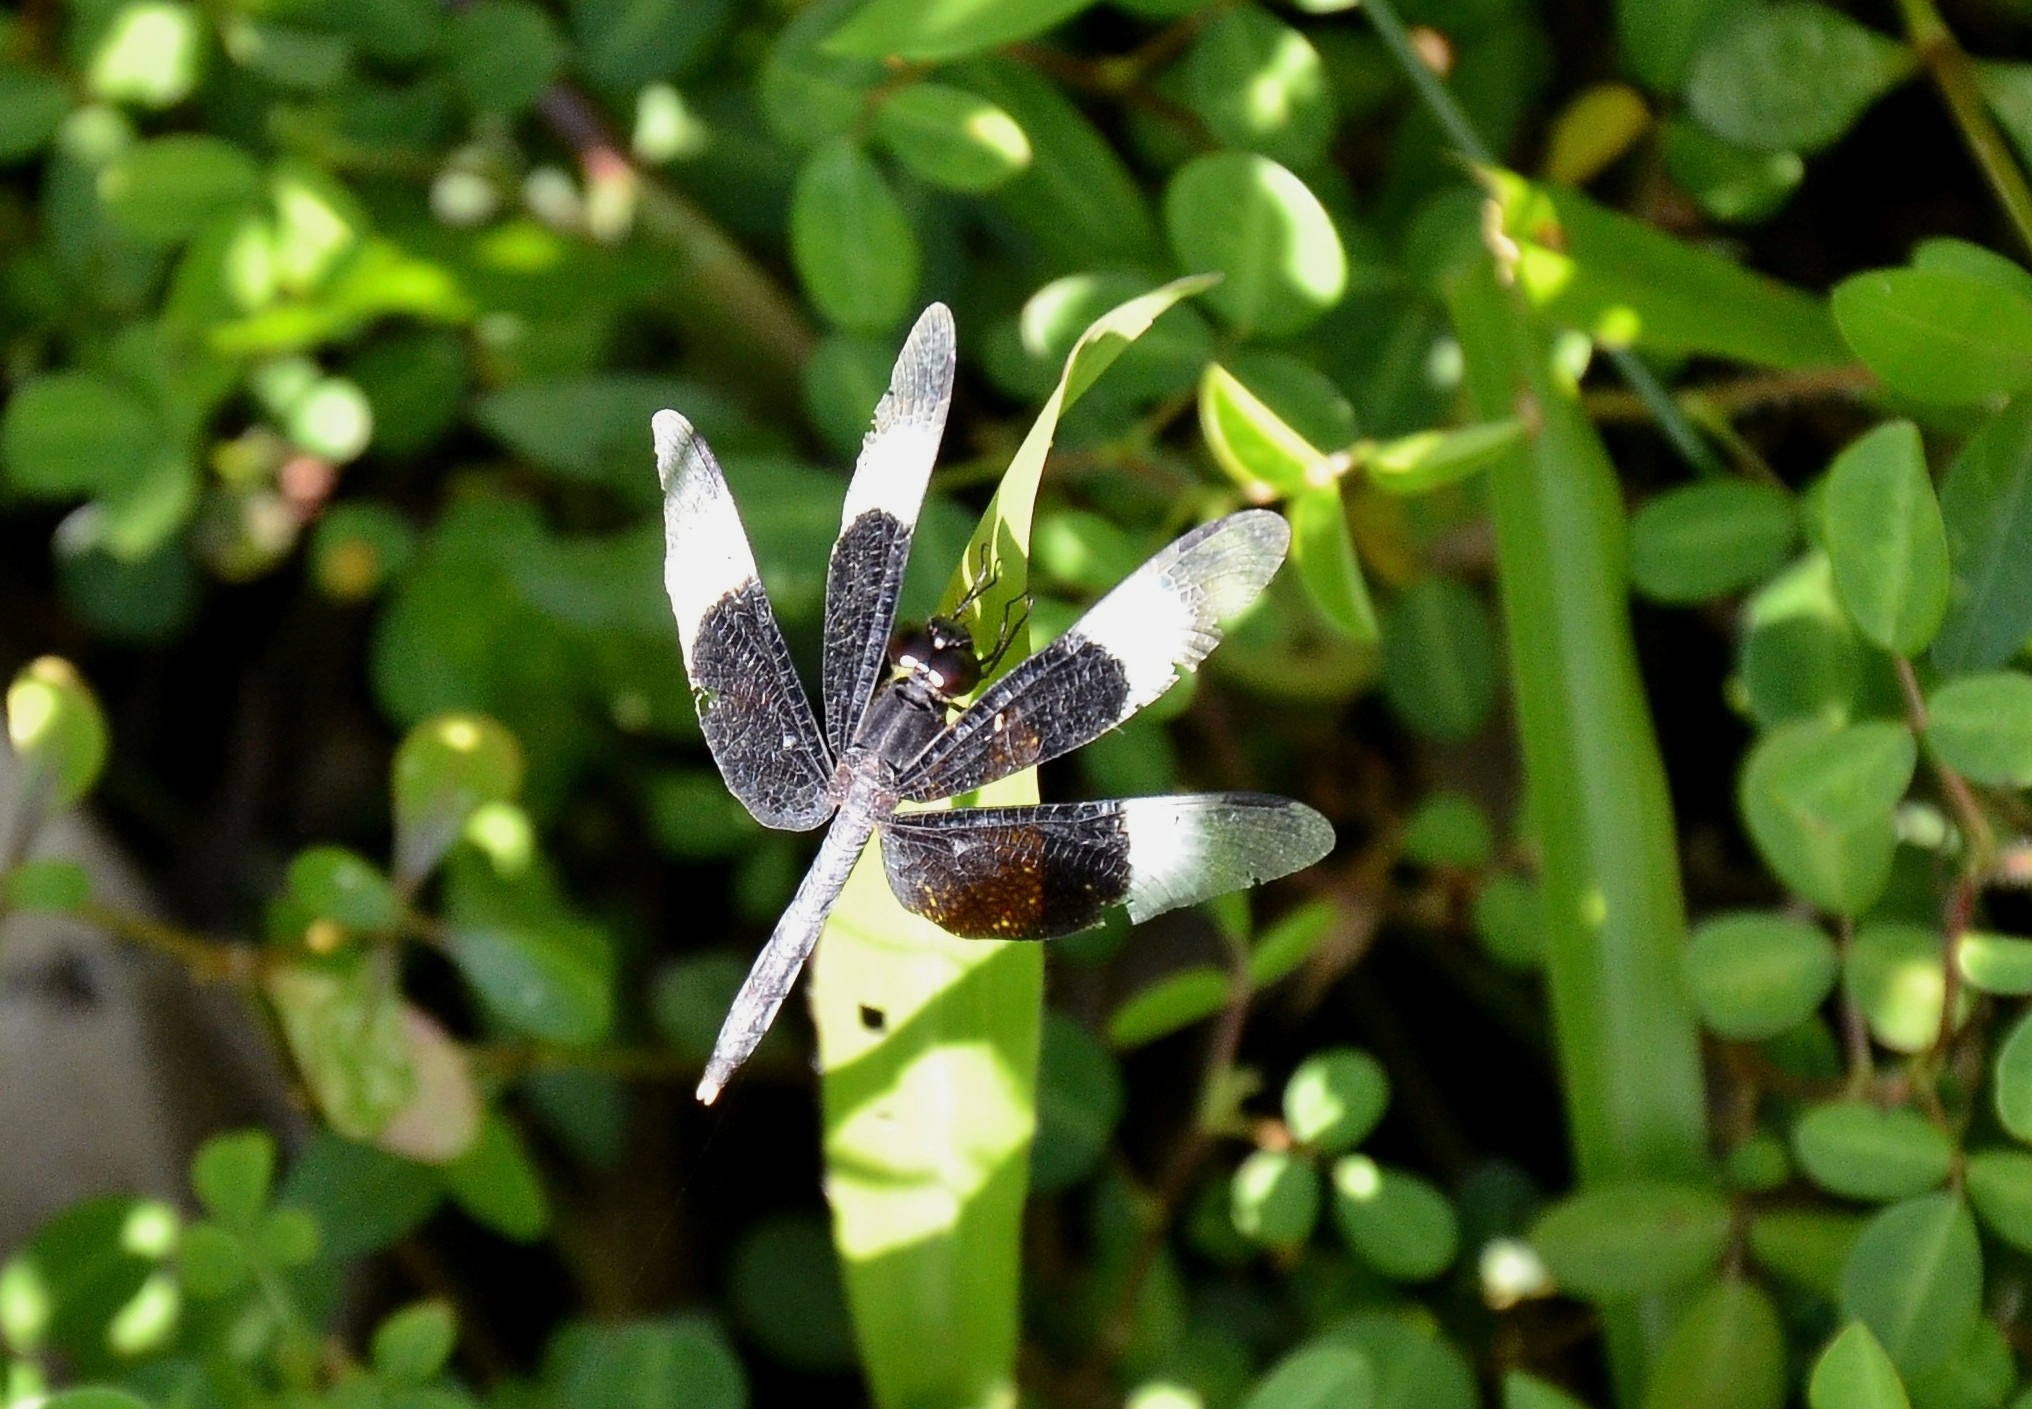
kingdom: Animalia
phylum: Arthropoda
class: Insecta
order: Odonata
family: Libellulidae
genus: Neurothemis
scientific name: Neurothemis tullia
